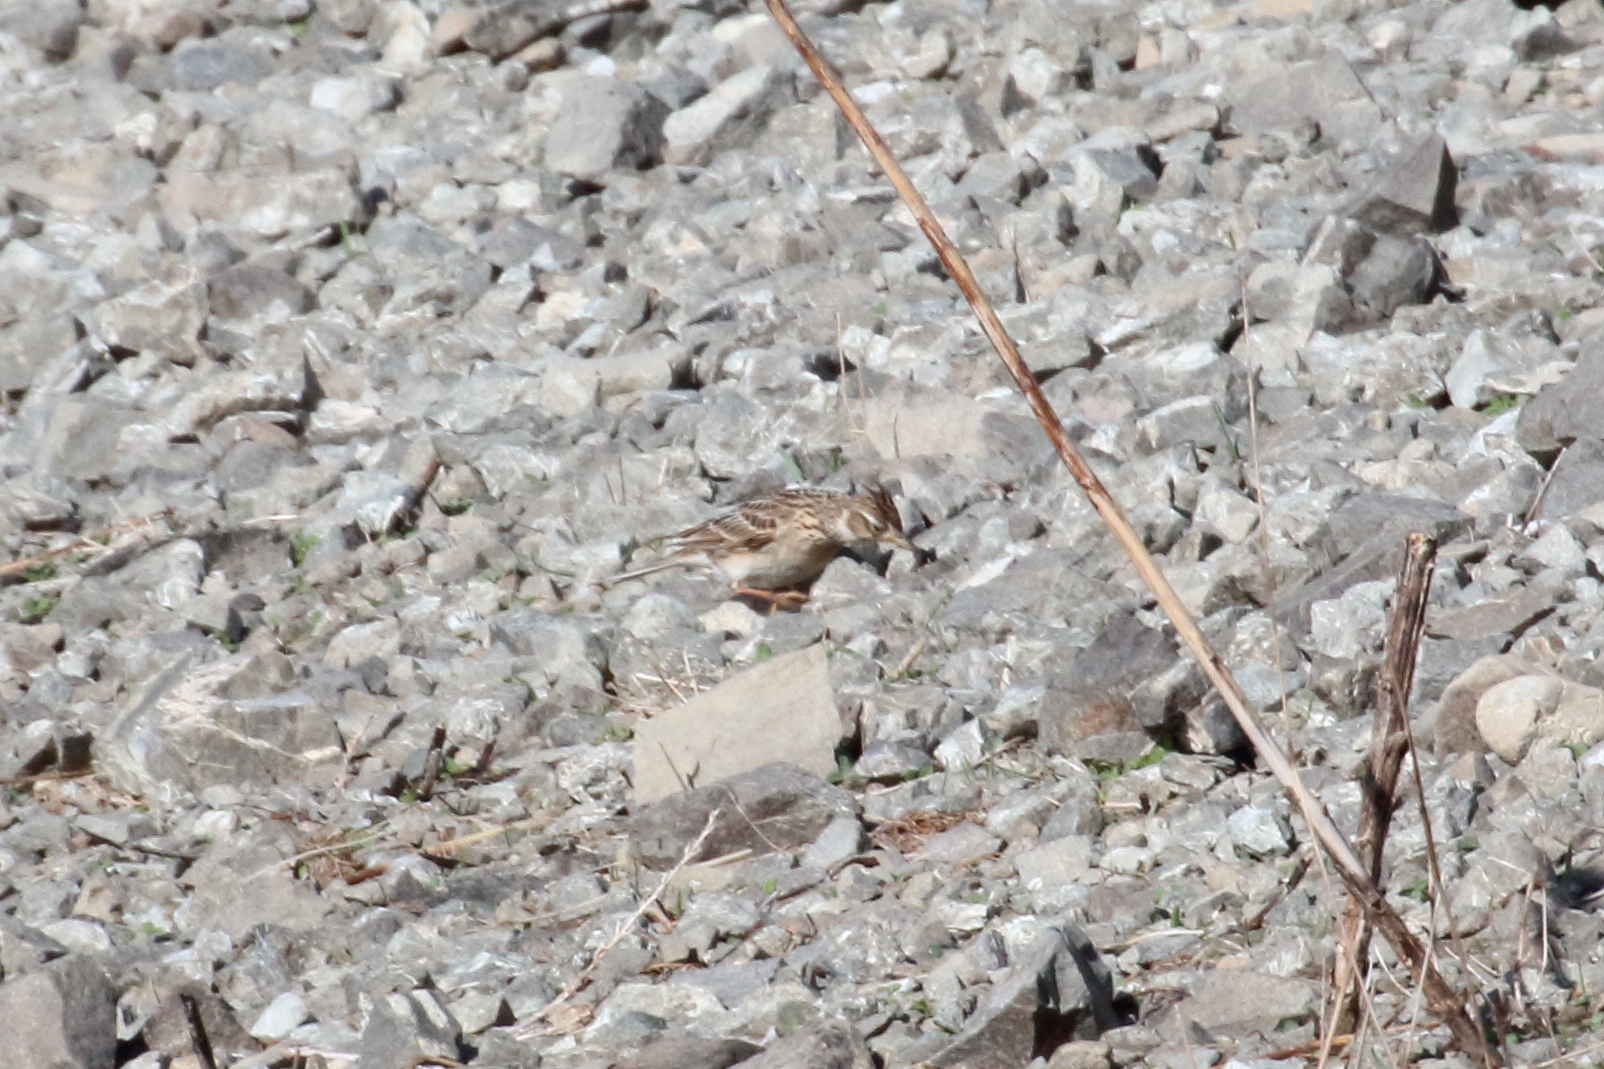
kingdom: Animalia
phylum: Chordata
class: Aves
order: Passeriformes
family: Alaudidae
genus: Alauda
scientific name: Alauda arvensis
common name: Eurasian skylark
